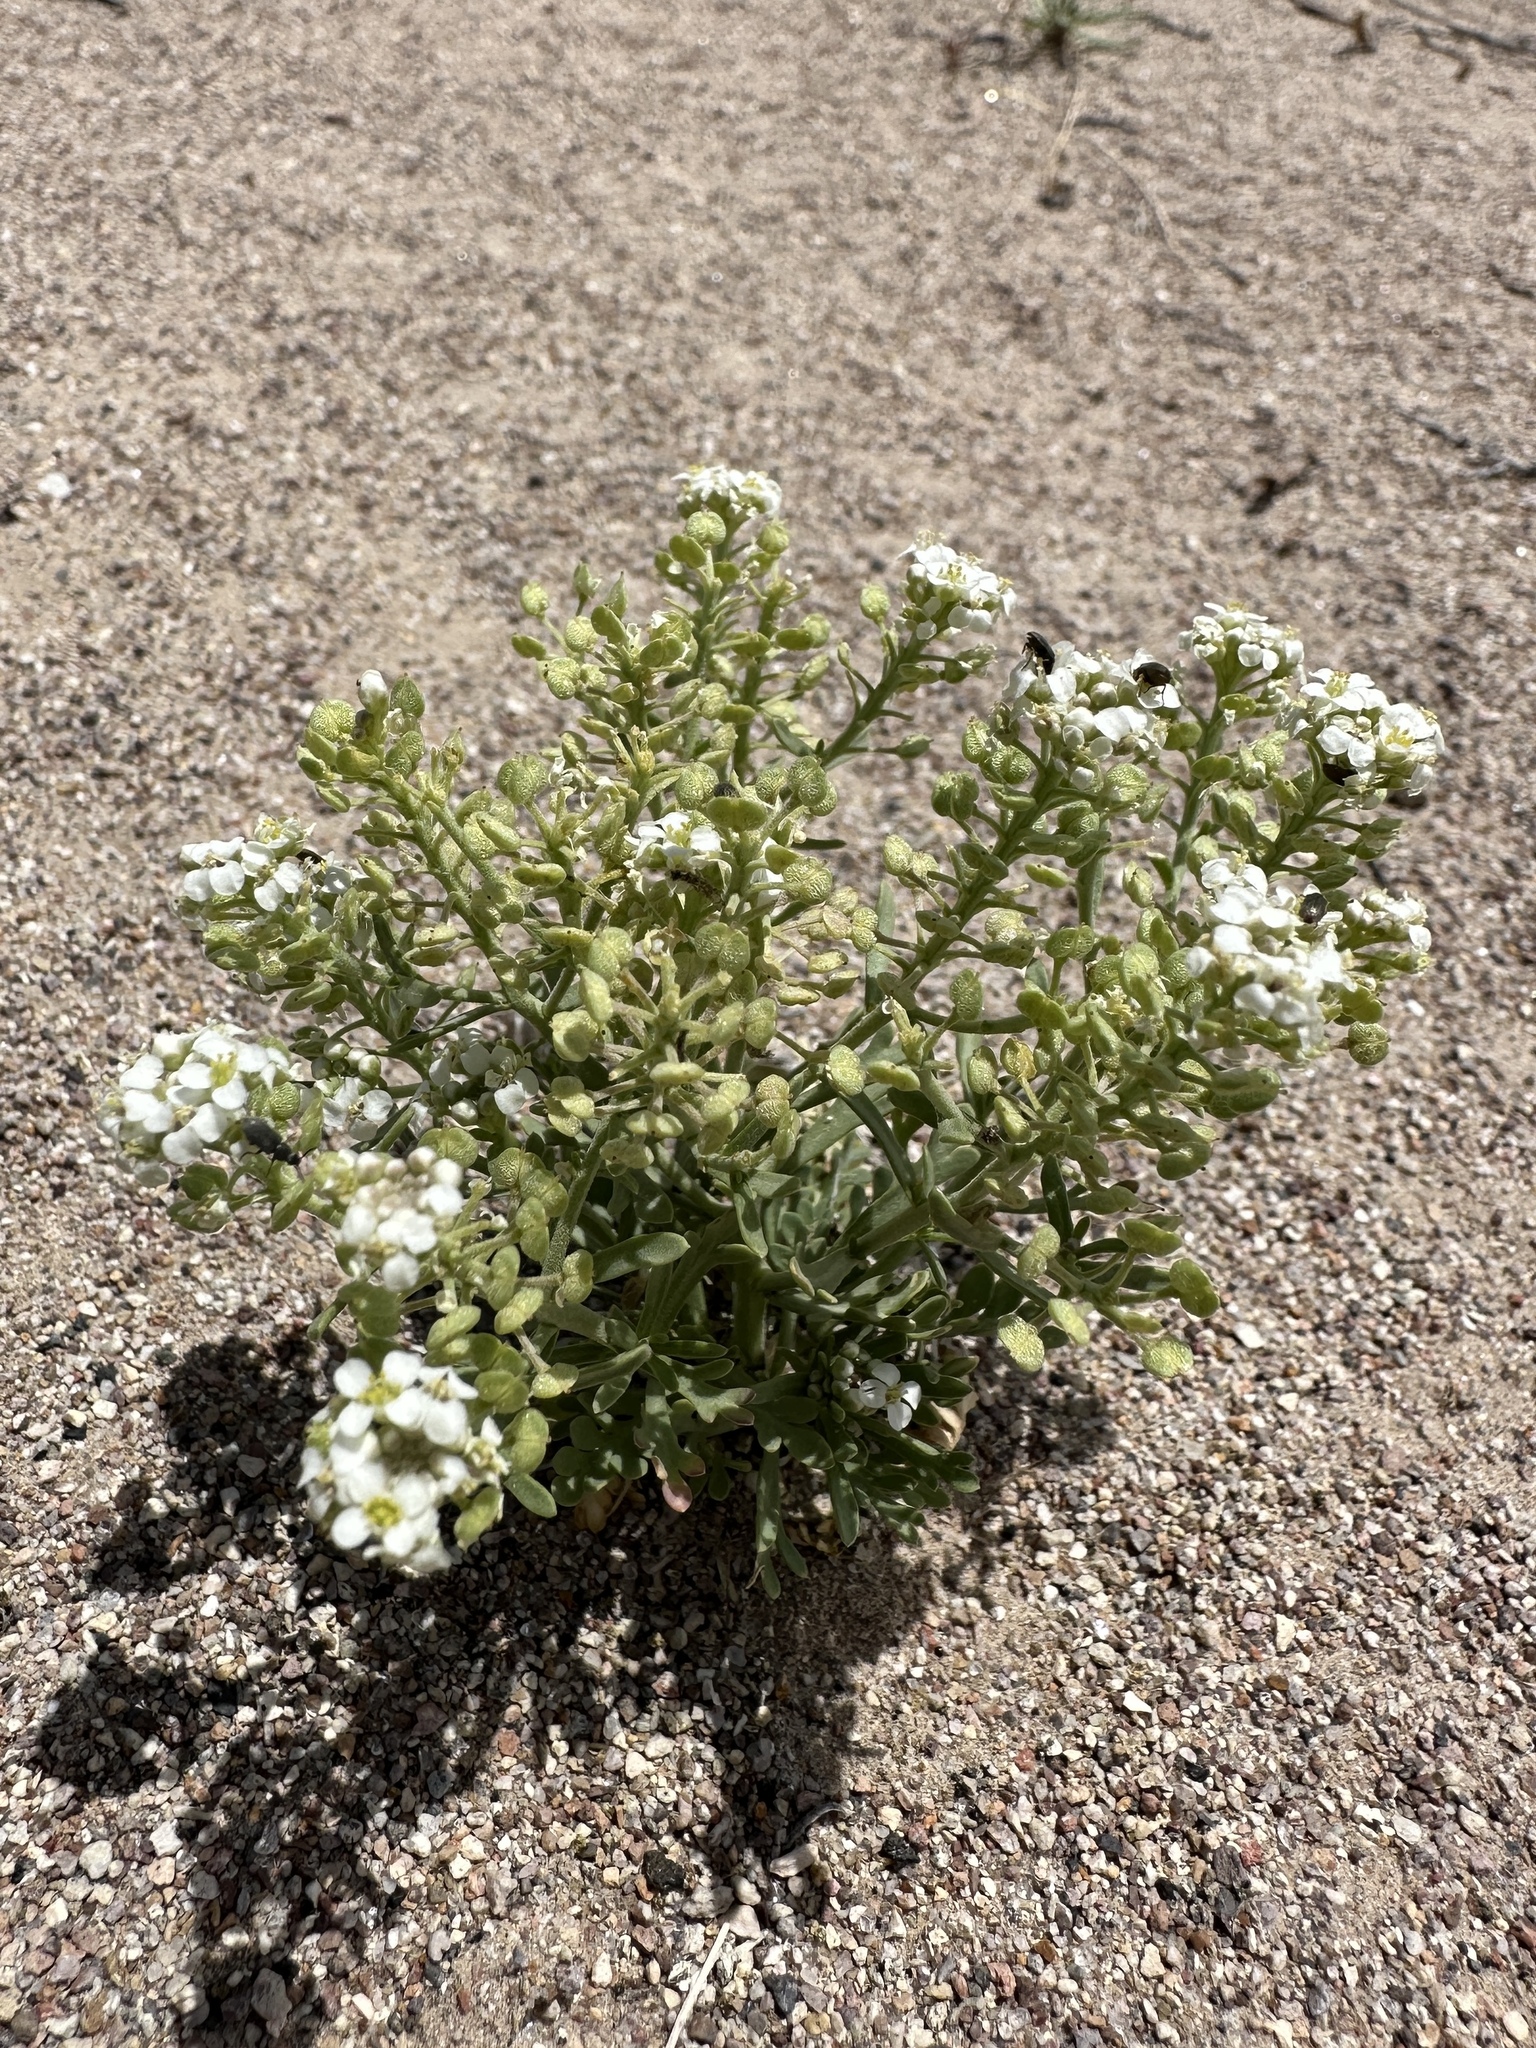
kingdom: Plantae
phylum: Tracheophyta
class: Magnoliopsida
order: Brassicales
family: Brassicaceae
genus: Lepidium
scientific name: Lepidium montanum
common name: Mountain pepperplant
